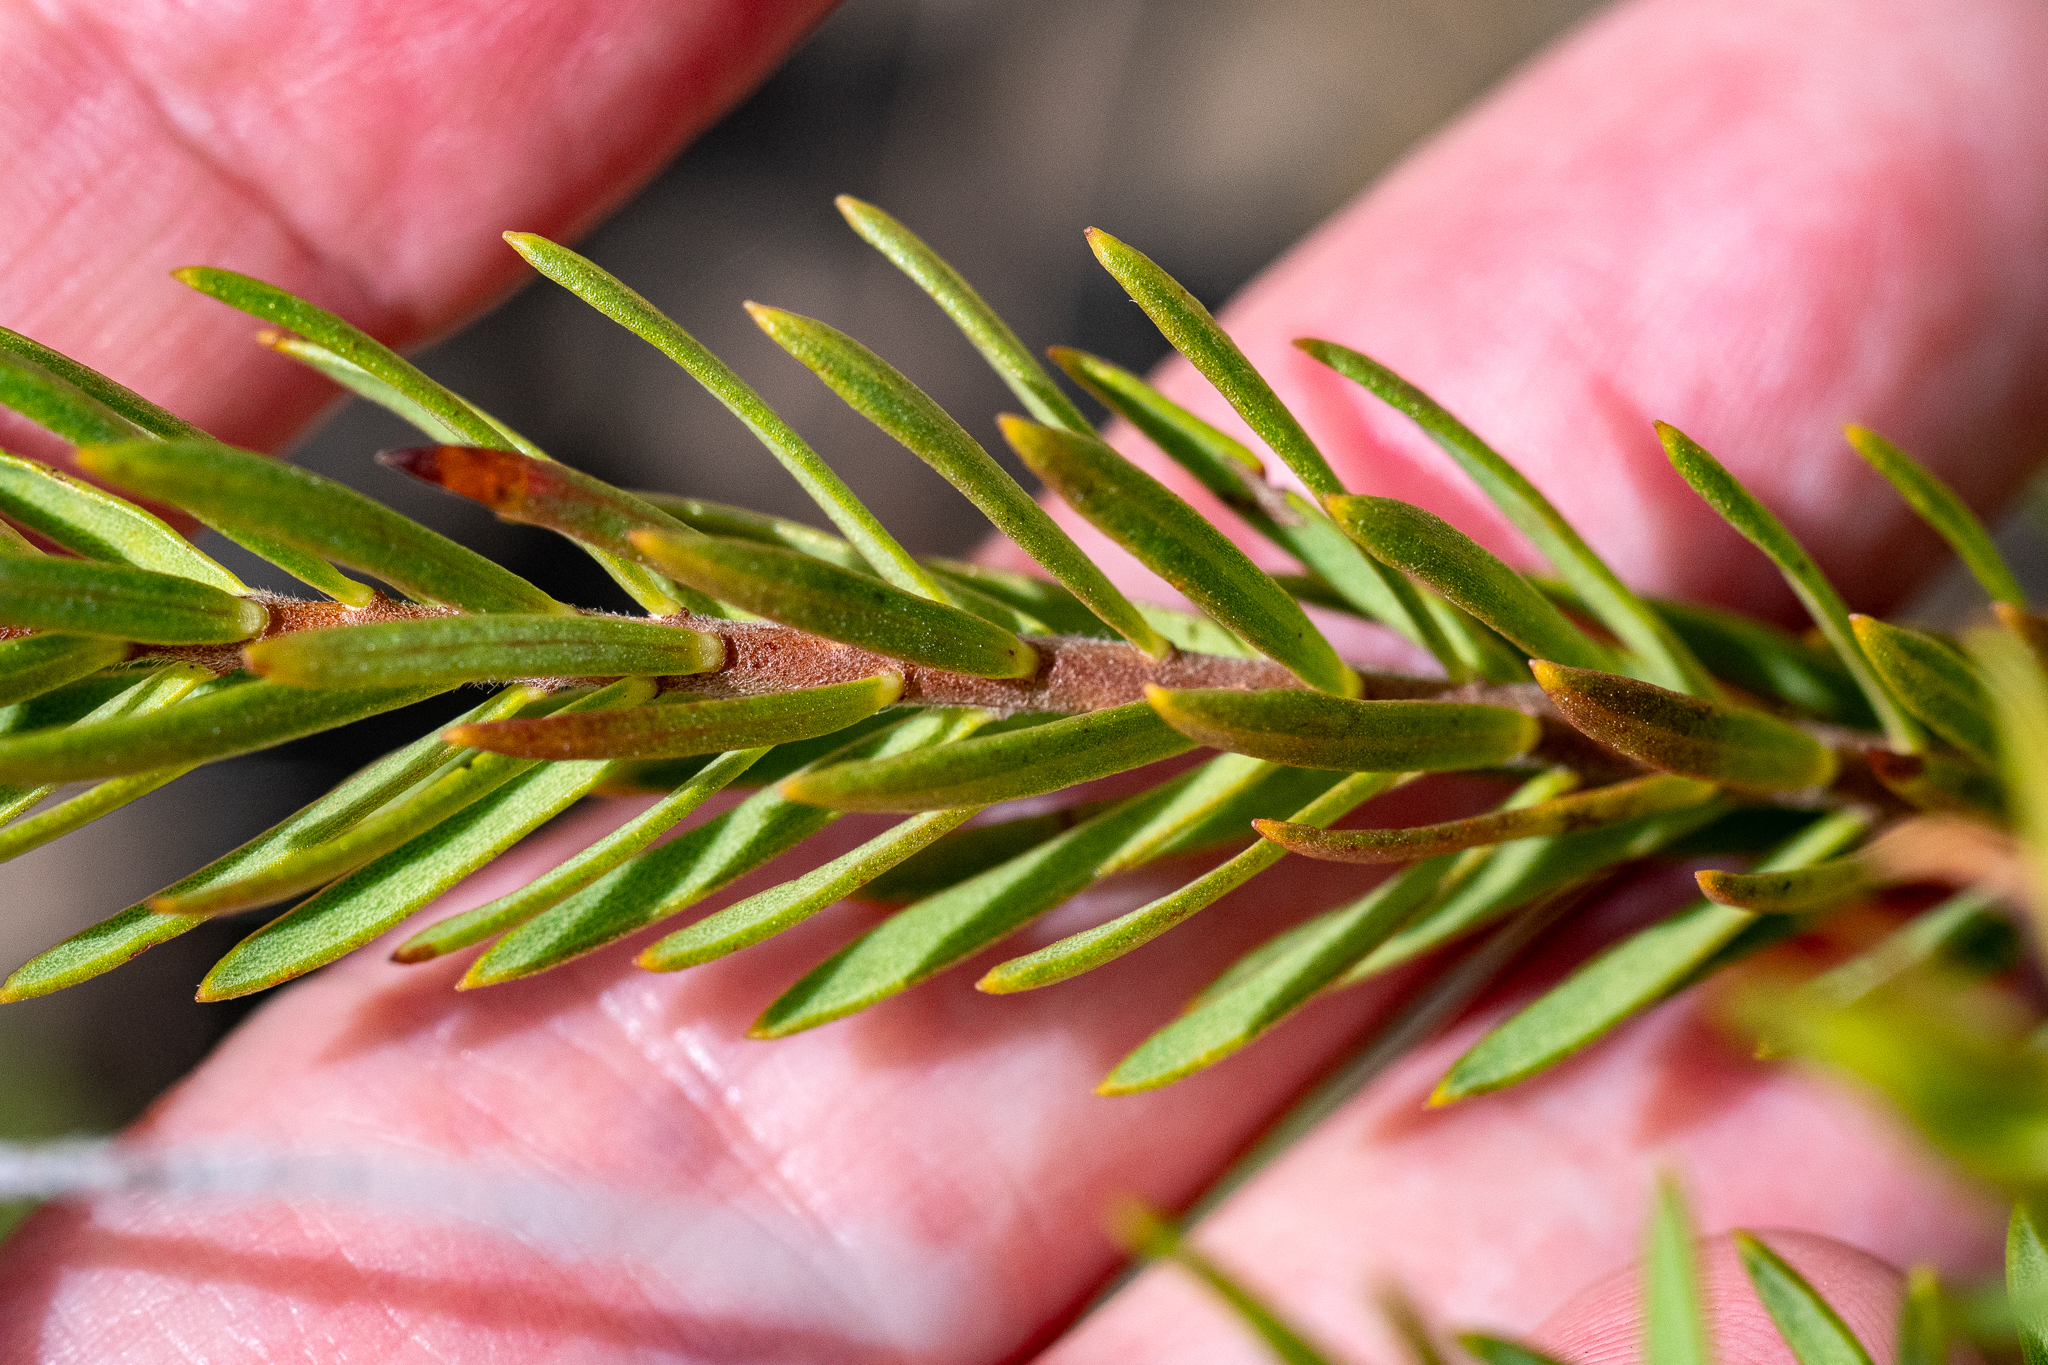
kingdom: Plantae
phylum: Tracheophyta
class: Magnoliopsida
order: Malvales
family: Thymelaeaceae
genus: Gnidia
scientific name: Gnidia juniperifolia
